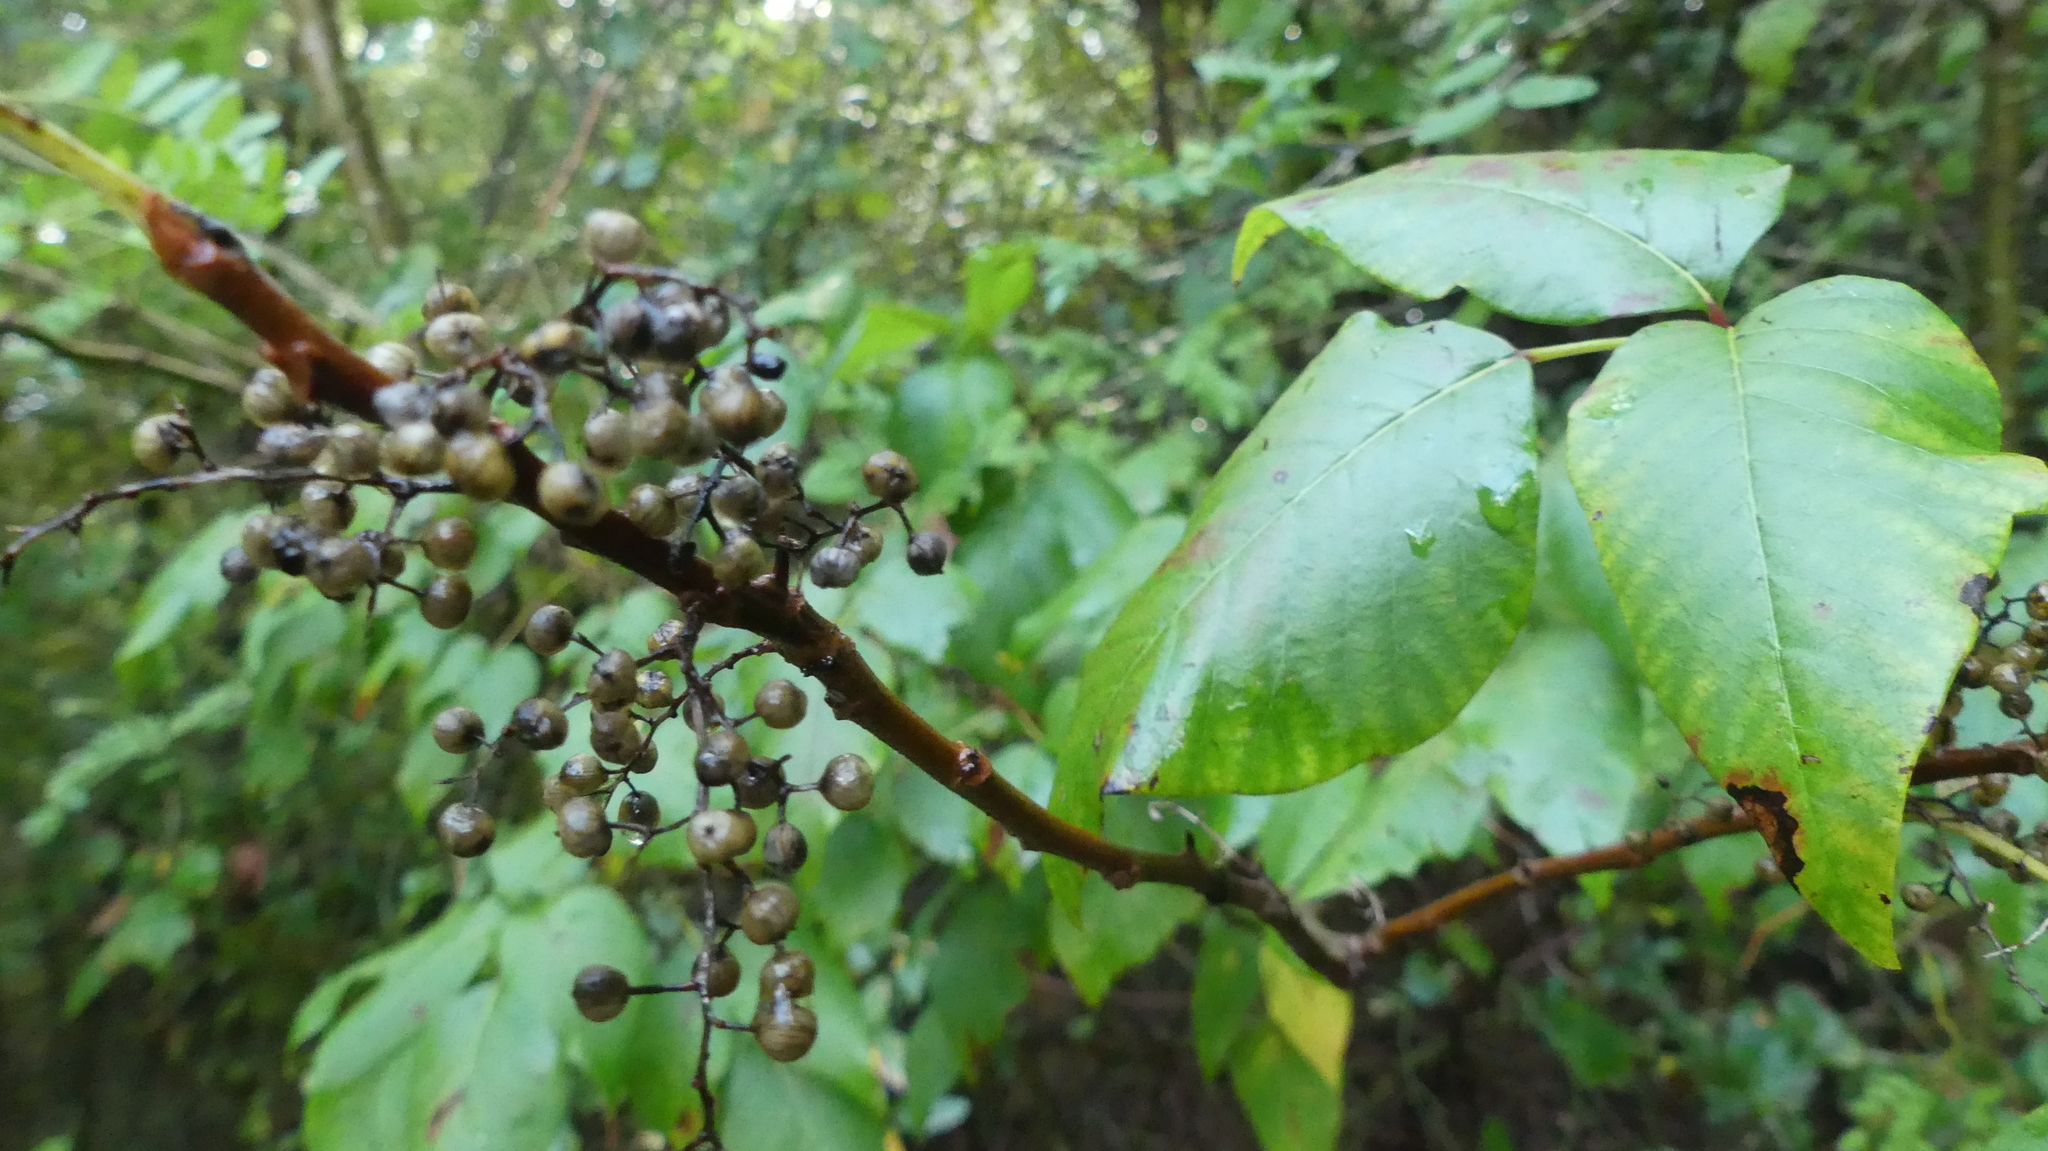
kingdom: Plantae
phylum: Tracheophyta
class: Magnoliopsida
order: Sapindales
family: Anacardiaceae
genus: Toxicodendron
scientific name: Toxicodendron radicans
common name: Poison ivy
